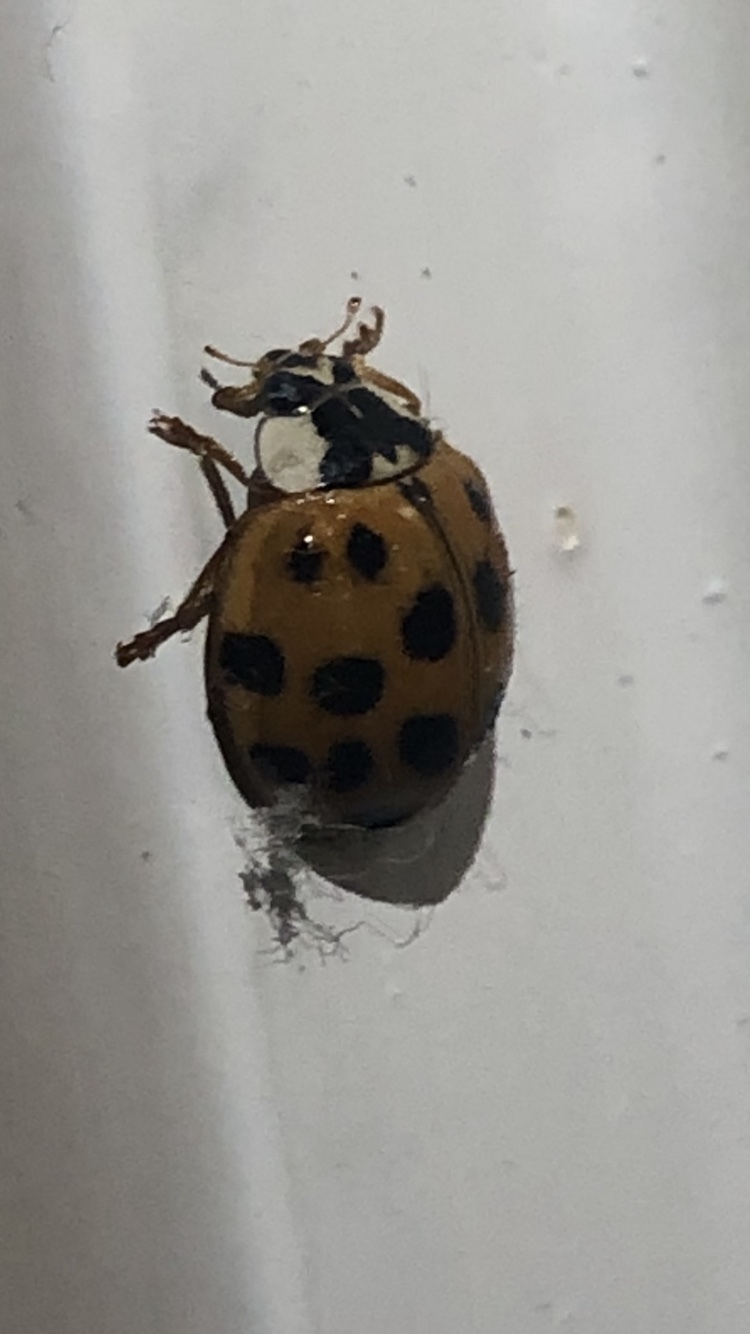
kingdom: Animalia
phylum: Arthropoda
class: Insecta
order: Coleoptera
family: Coccinellidae
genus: Harmonia
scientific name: Harmonia axyridis
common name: Harlequin ladybird
